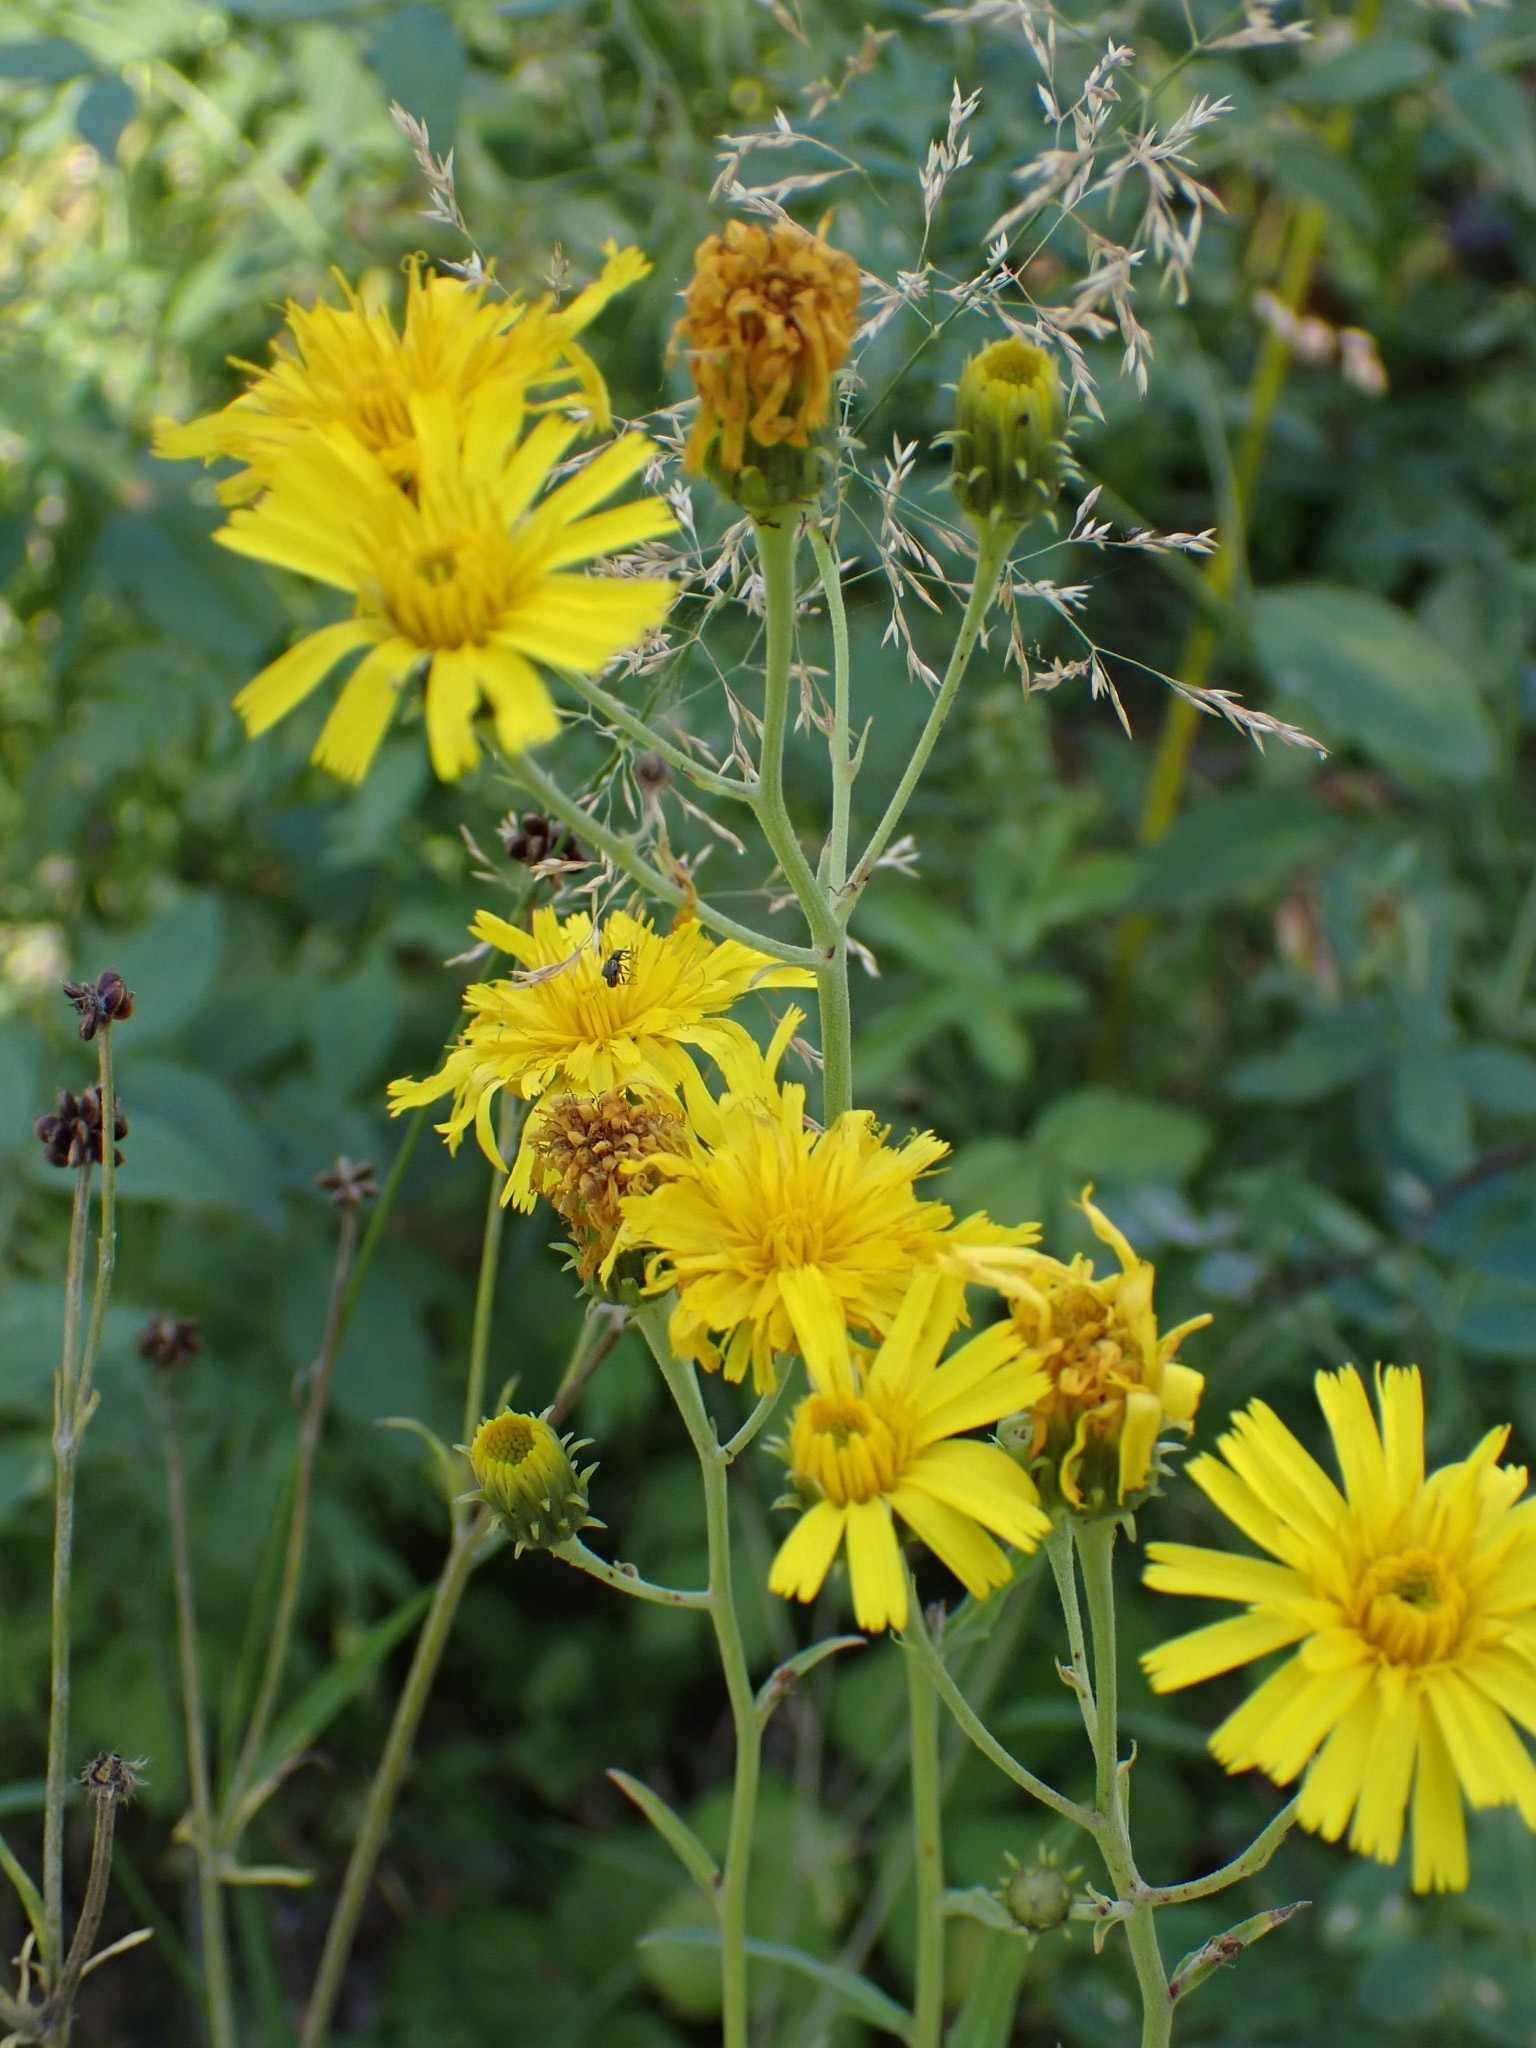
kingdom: Plantae
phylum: Tracheophyta
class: Magnoliopsida
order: Asterales
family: Asteraceae
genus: Hieracium
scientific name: Hieracium umbellatum
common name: Northern hawkweed
